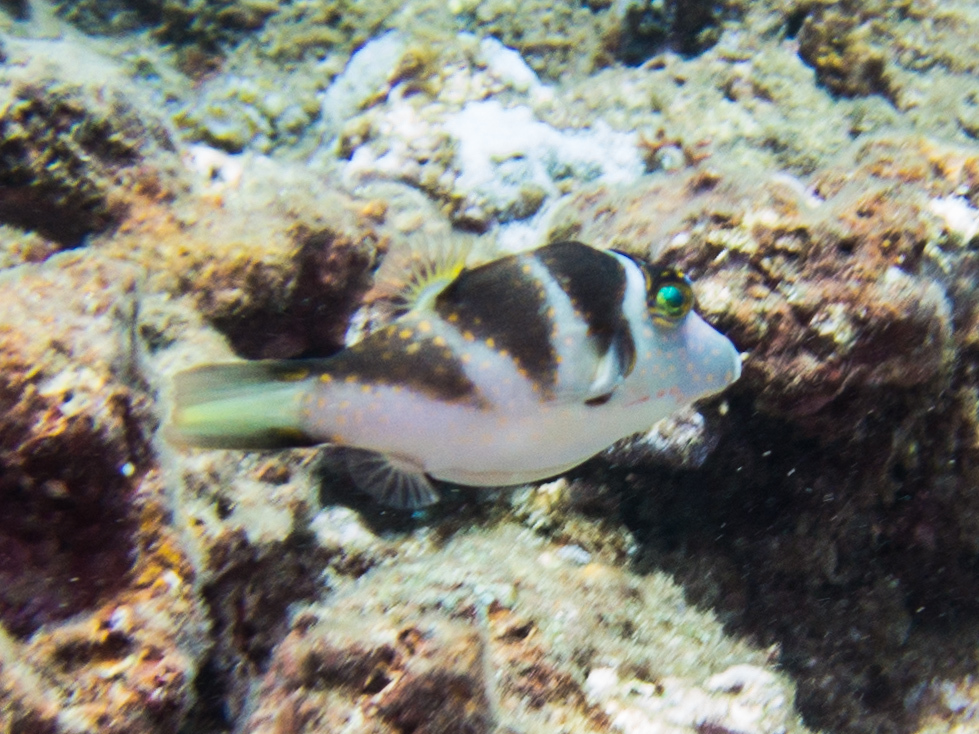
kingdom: Animalia
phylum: Chordata
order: Tetraodontiformes
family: Tetraodontidae
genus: Canthigaster
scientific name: Canthigaster coronata
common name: Crown toby
